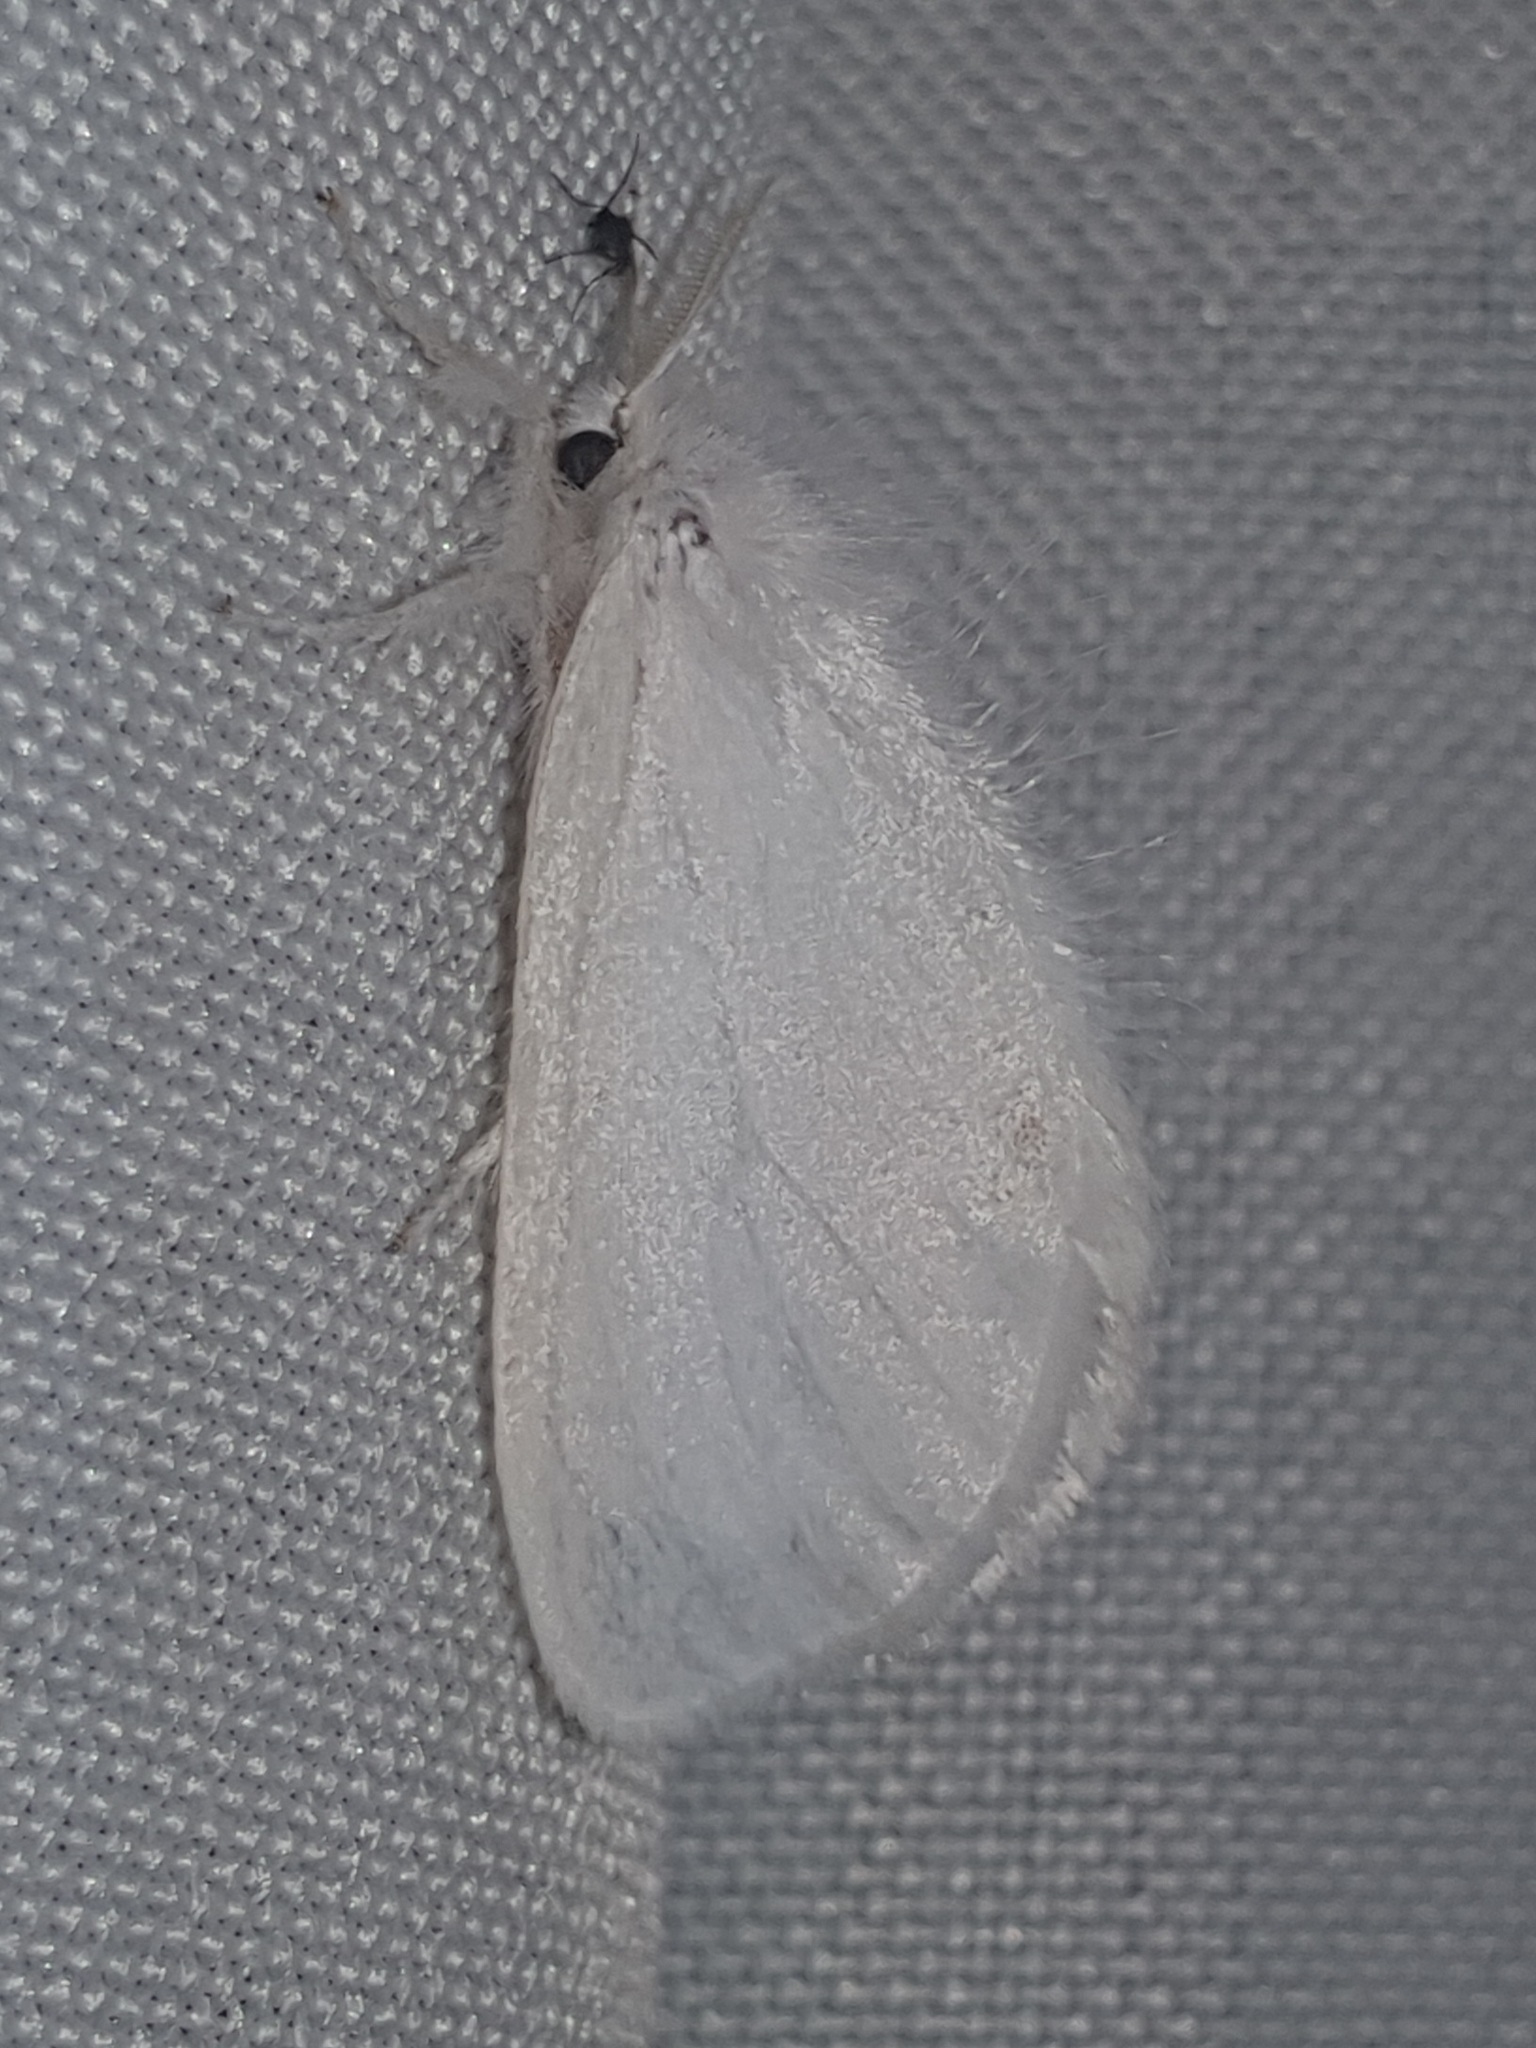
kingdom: Animalia
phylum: Arthropoda
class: Insecta
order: Lepidoptera
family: Erebidae
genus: Sphrageidus
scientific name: Sphrageidus similis
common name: Yellow-tail
